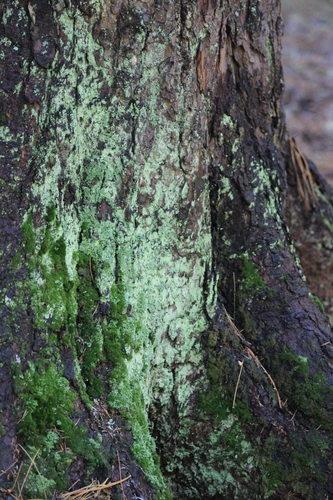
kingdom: Fungi
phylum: Ascomycota
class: Lecanoromycetes
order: Lecanorales
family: Stereocaulaceae
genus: Lepraria
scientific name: Lepraria lobificans
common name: Fluffy dust lichen
